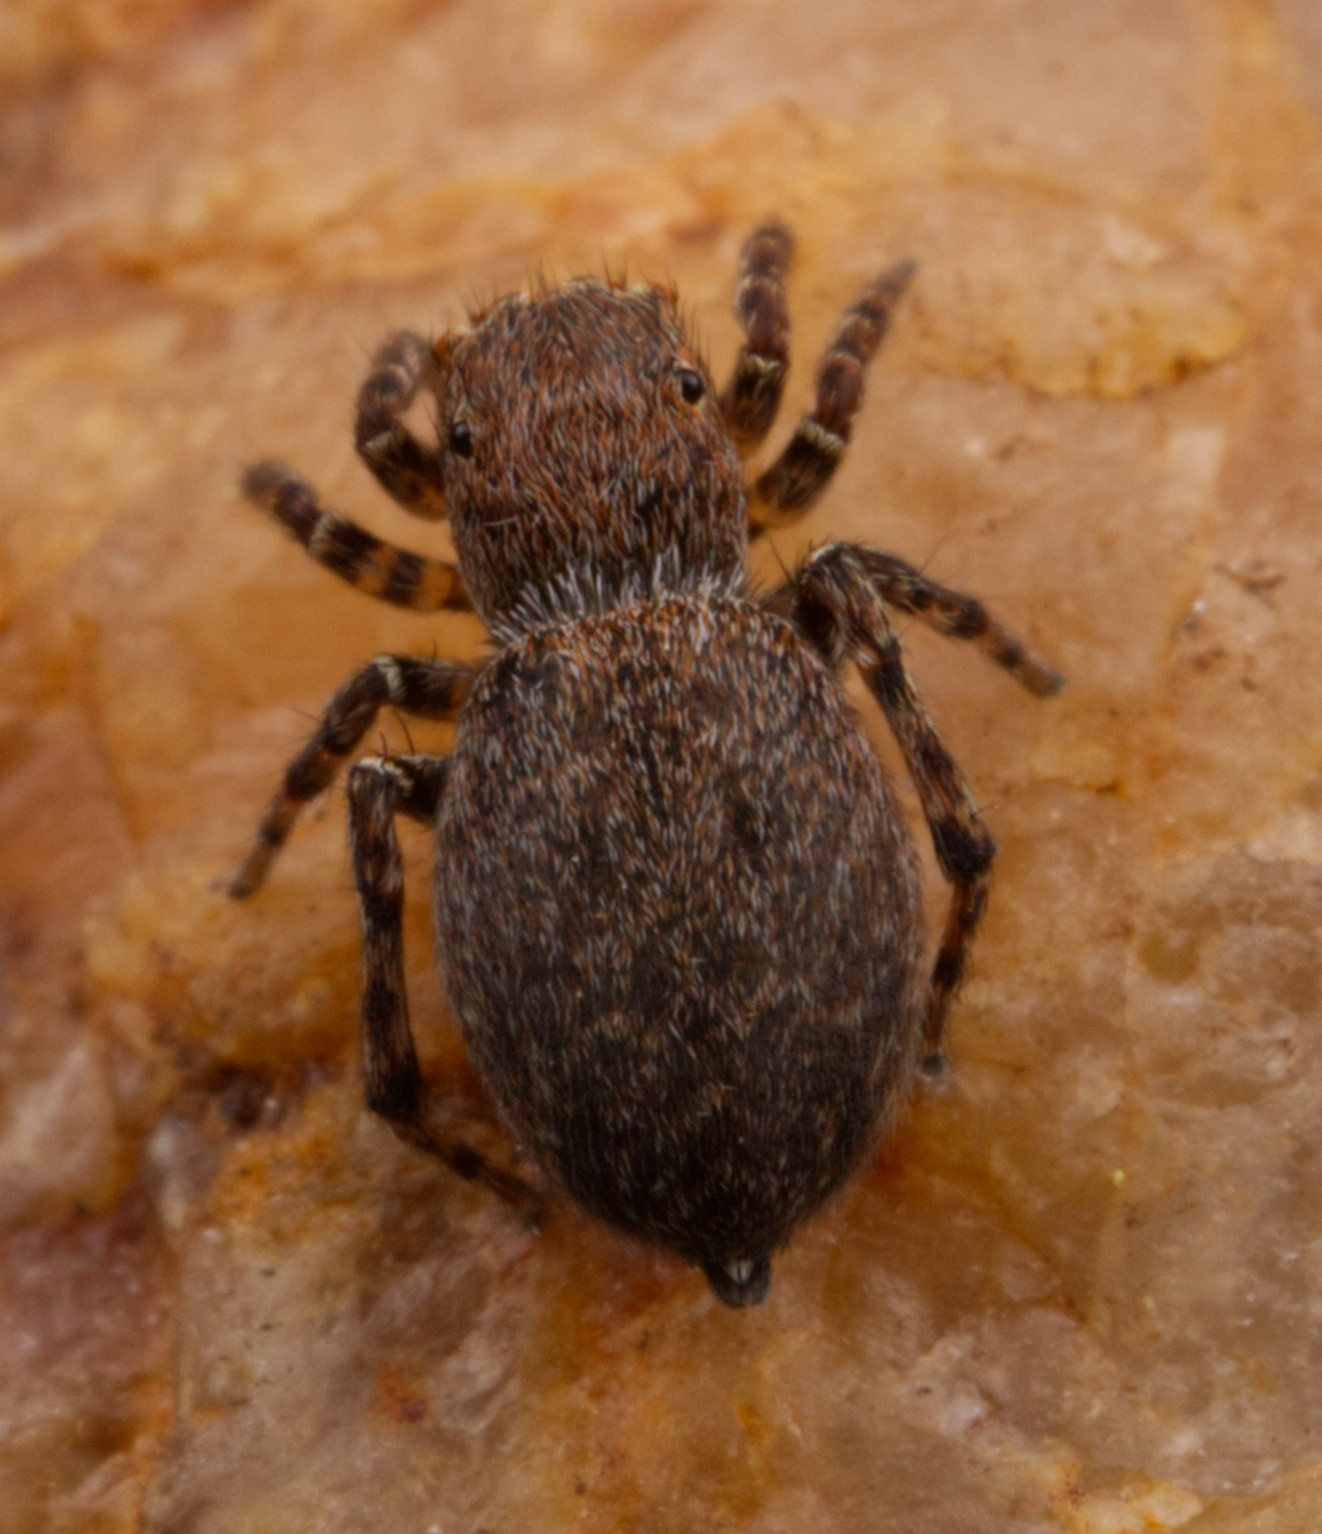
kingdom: Animalia
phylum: Arthropoda
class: Arachnida
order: Araneae
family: Salticidae
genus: Attinella
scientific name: Attinella concolor
